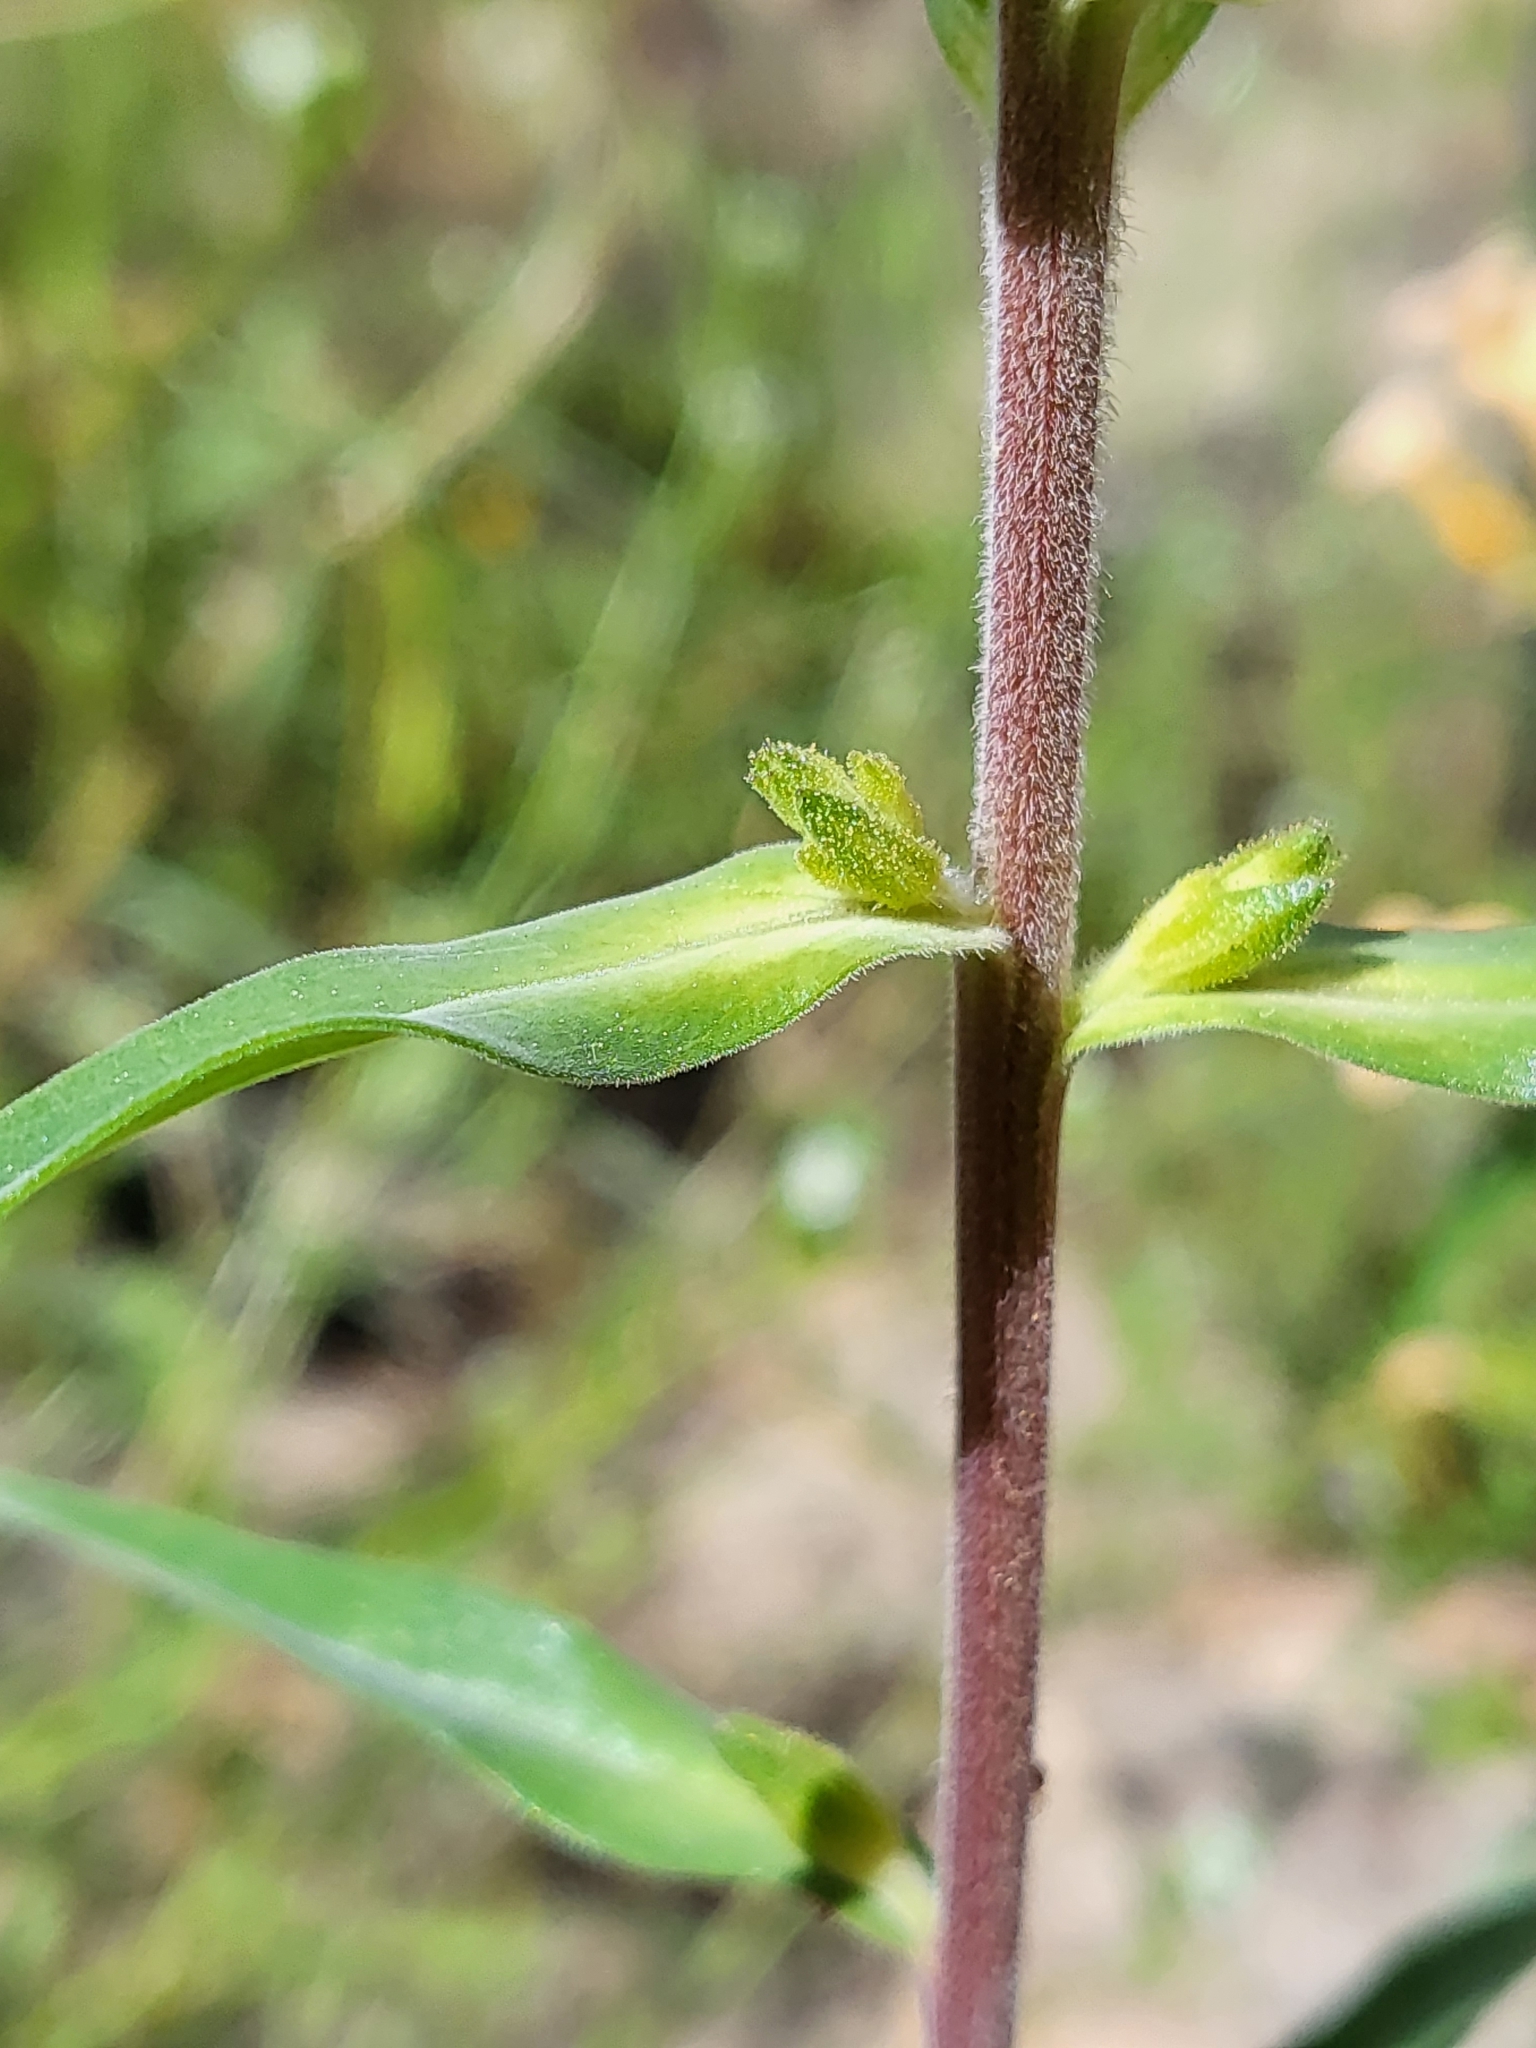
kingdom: Plantae
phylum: Tracheophyta
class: Magnoliopsida
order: Ericales
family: Polemoniaceae
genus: Collomia
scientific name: Collomia grandiflora
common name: California strawflower
